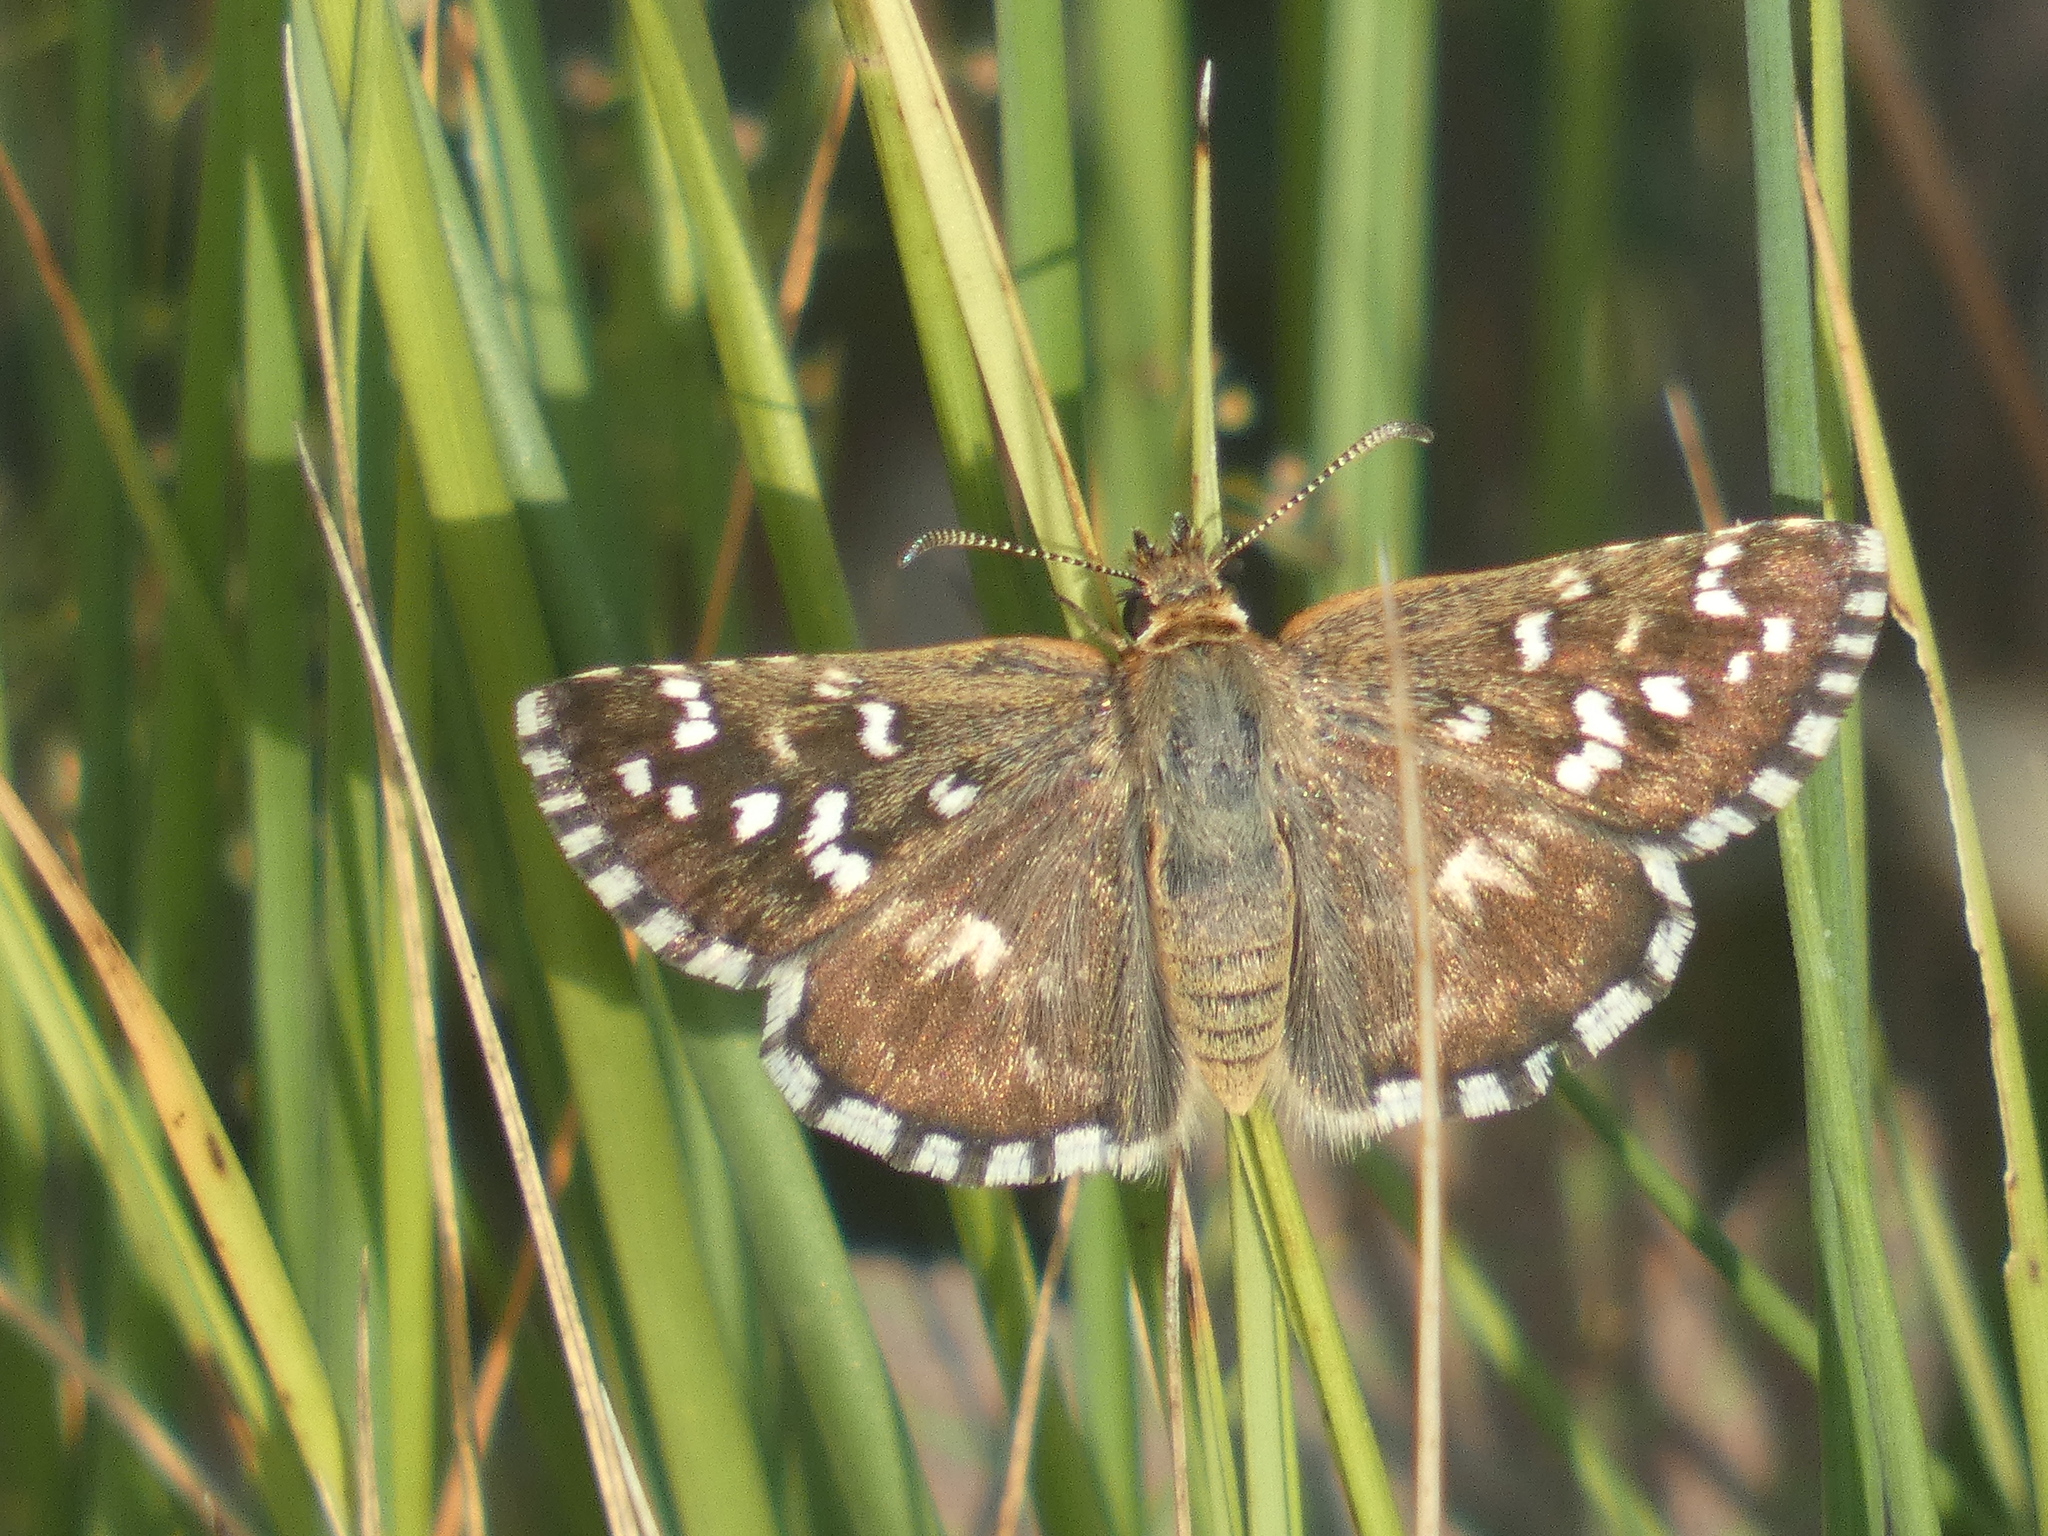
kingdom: Animalia
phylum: Arthropoda
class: Insecta
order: Lepidoptera
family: Hesperiidae
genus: Pyrgus
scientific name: Pyrgus malvoides
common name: Southern grizzled skipper
